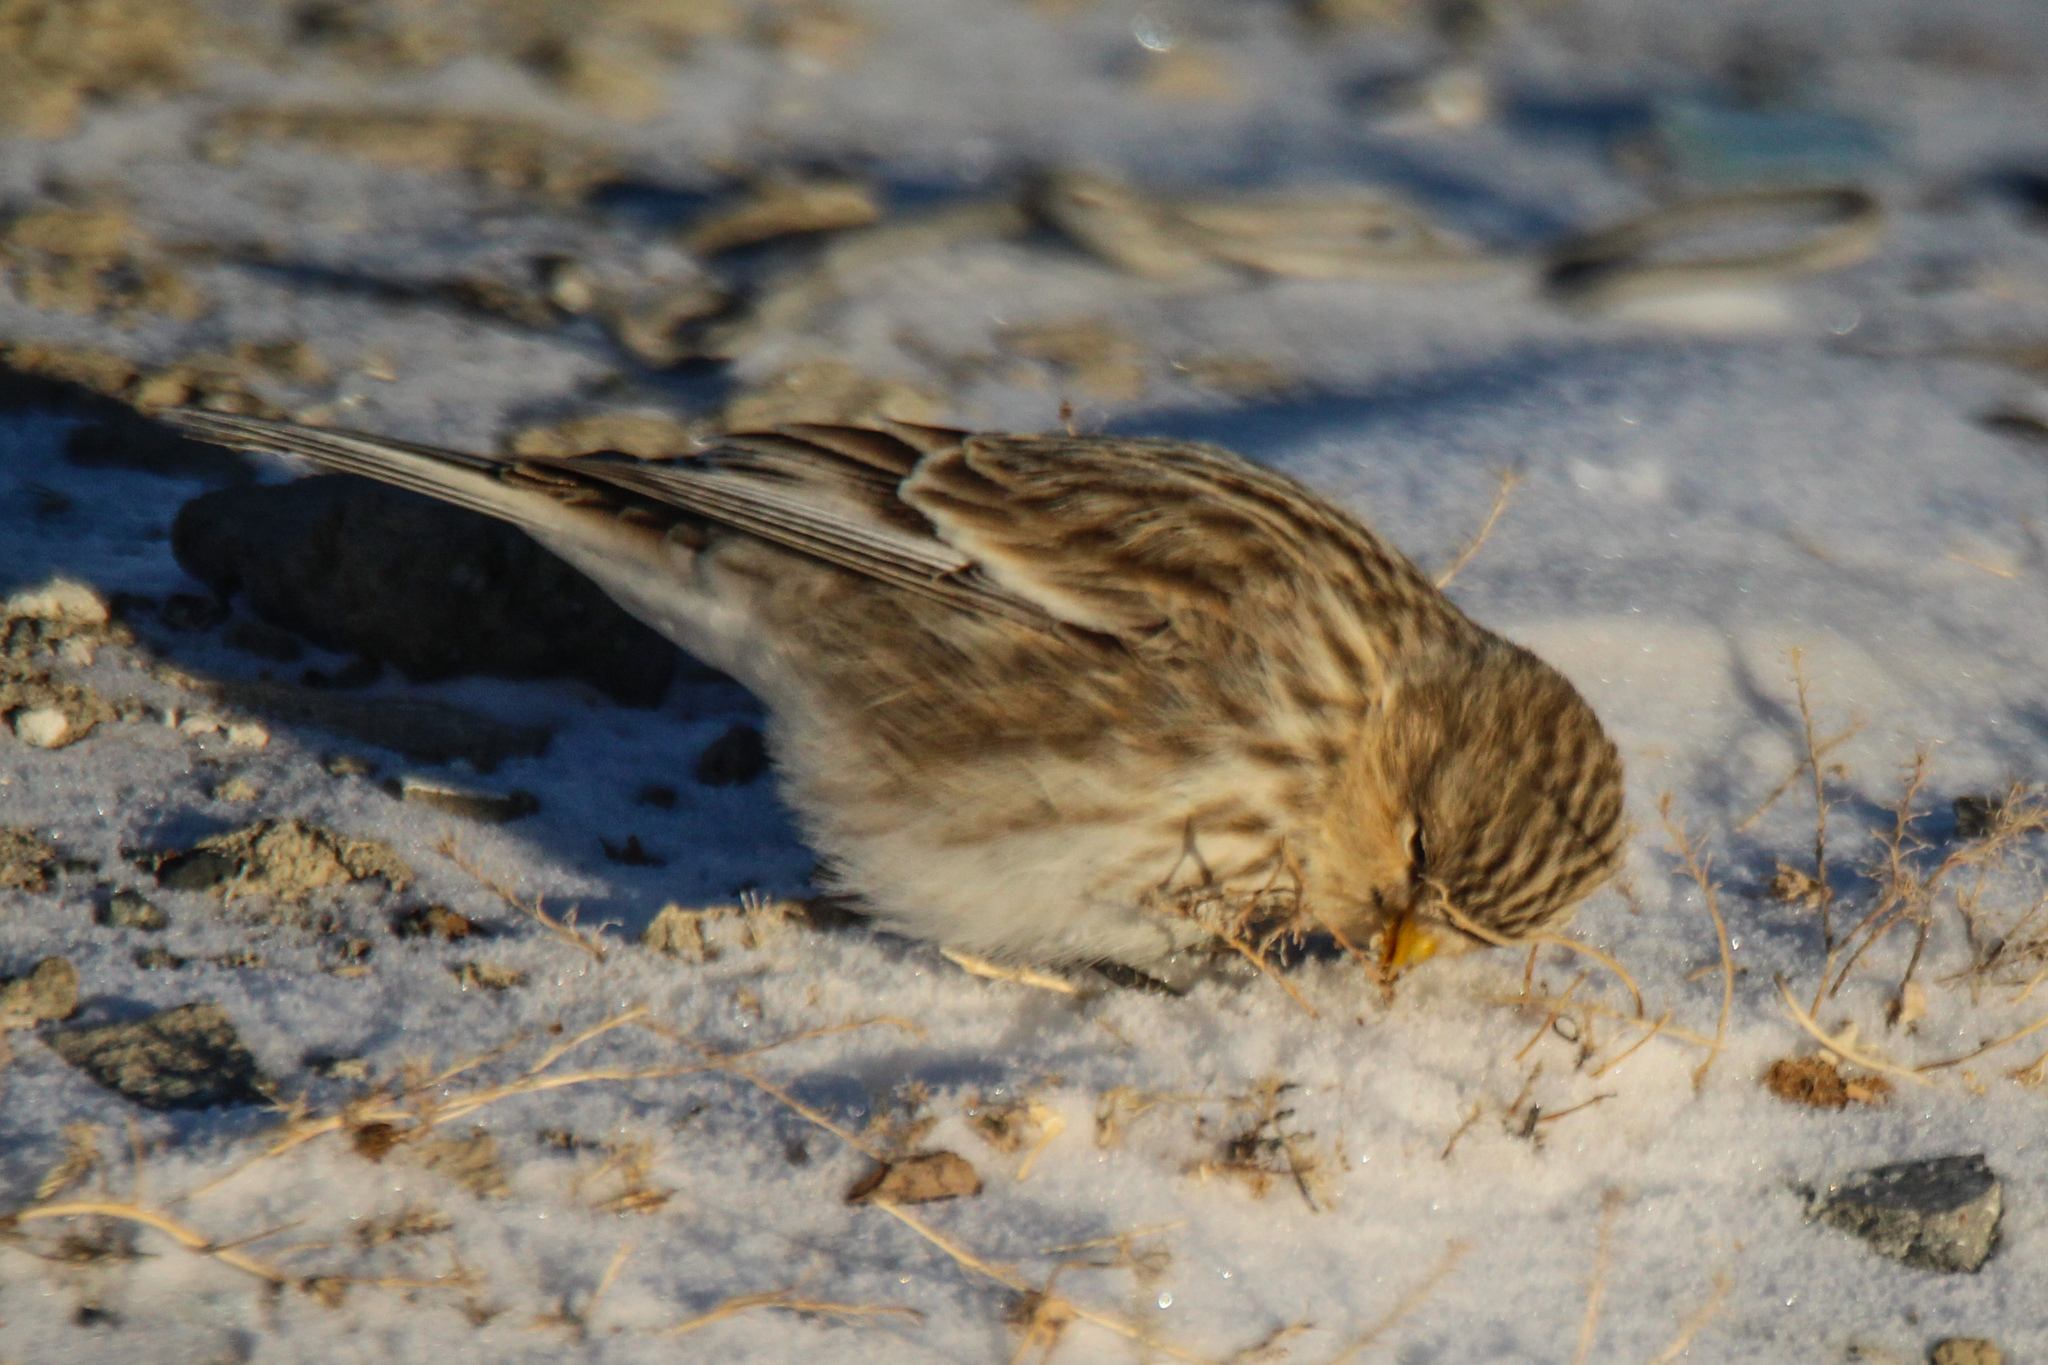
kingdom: Animalia
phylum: Chordata
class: Aves
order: Passeriformes
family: Fringillidae
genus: Linaria
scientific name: Linaria flavirostris
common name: Twite
